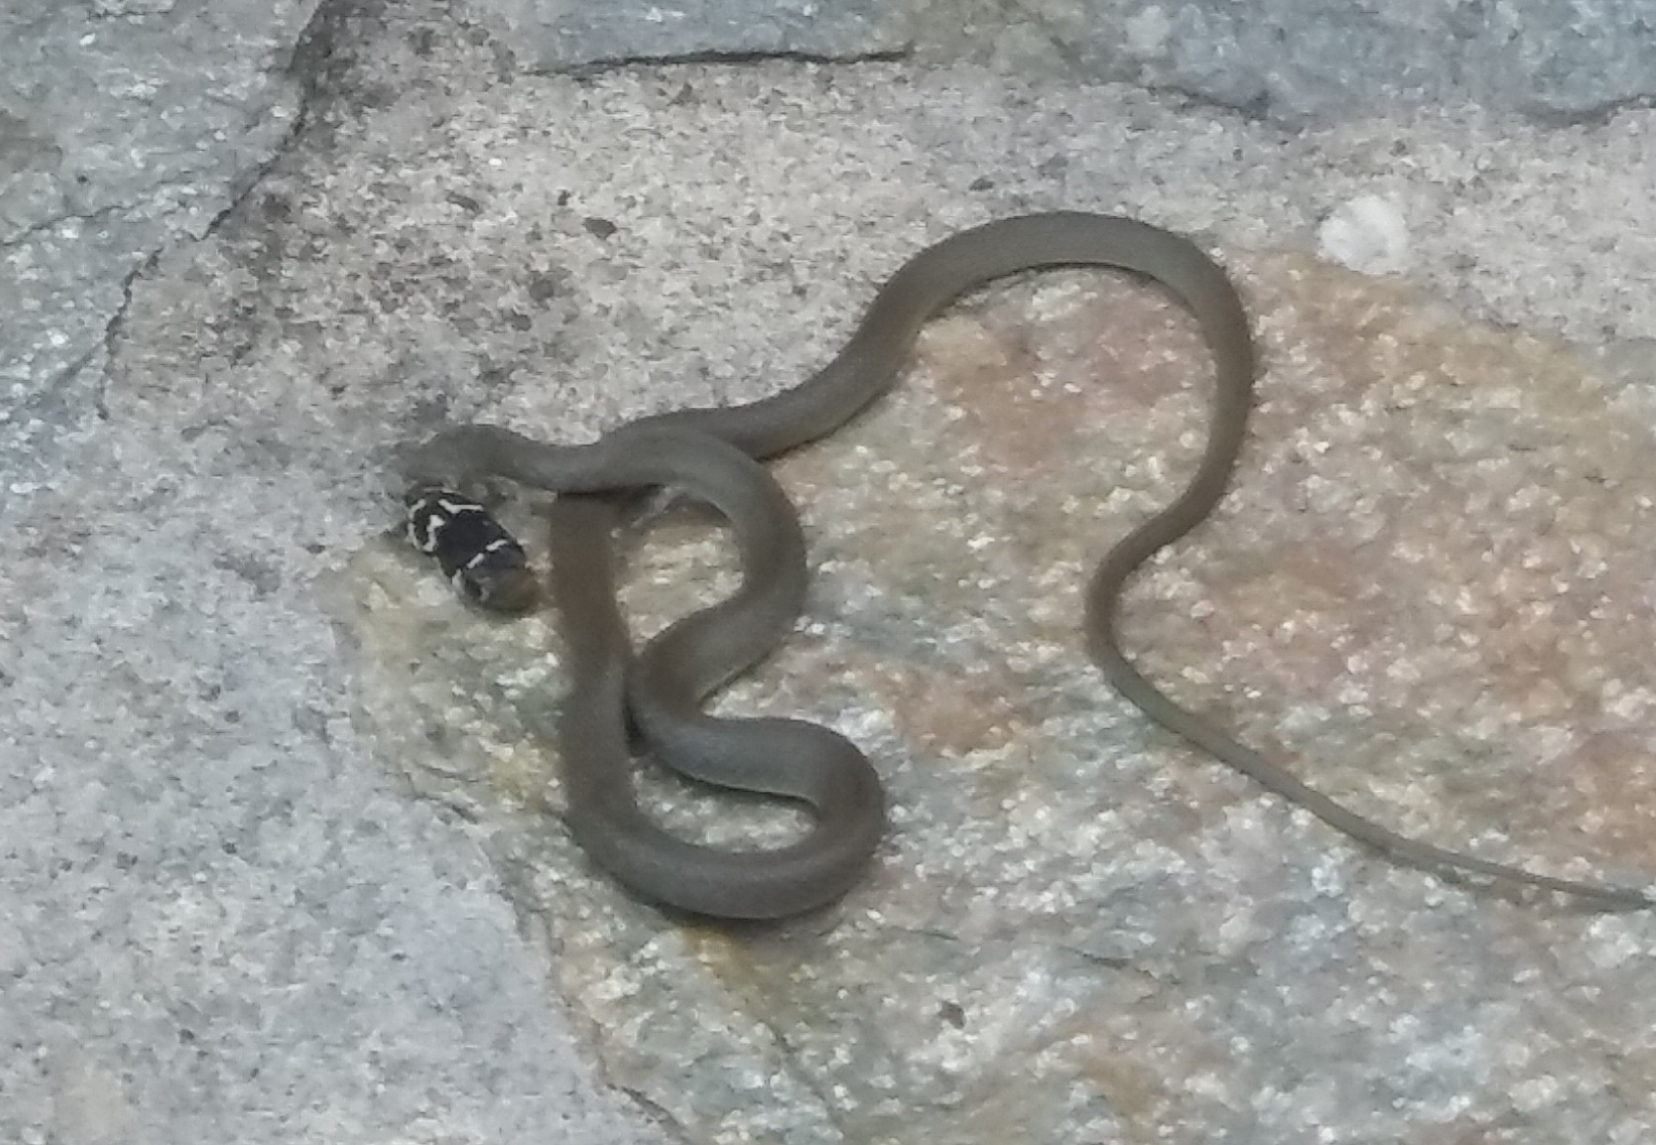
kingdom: Animalia
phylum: Chordata
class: Squamata
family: Colubridae
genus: Hierophis
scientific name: Hierophis viridiflavus
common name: Green whip snake
